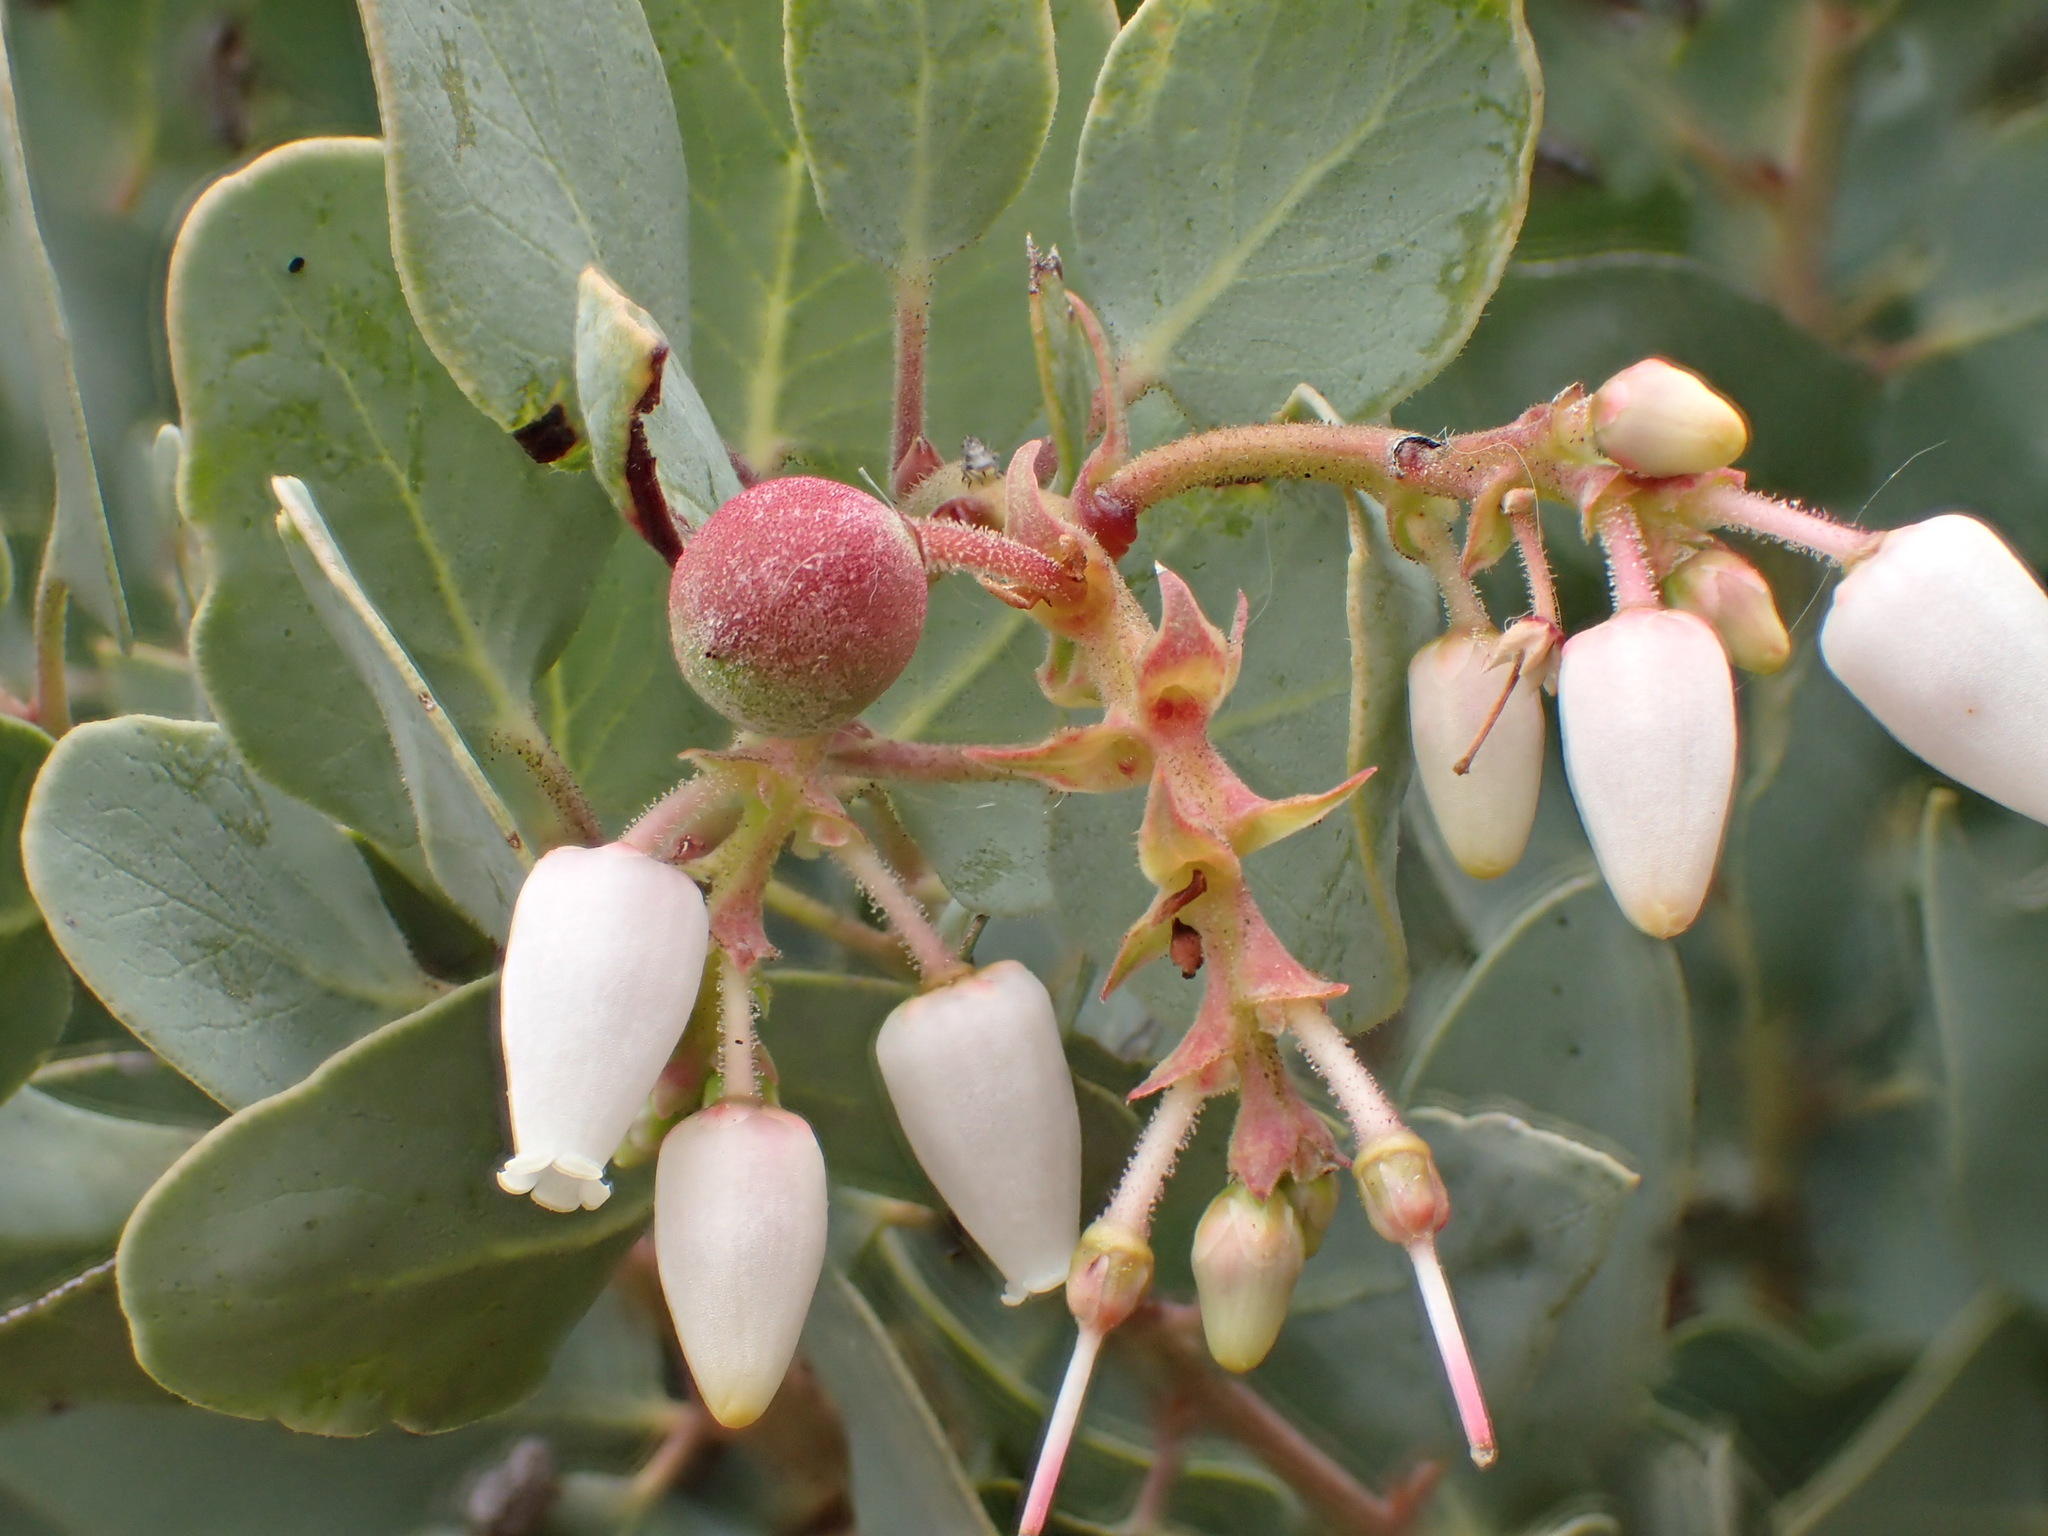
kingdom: Plantae
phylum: Tracheophyta
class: Magnoliopsida
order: Ericales
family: Ericaceae
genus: Arctostaphylos
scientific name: Arctostaphylos glauca
